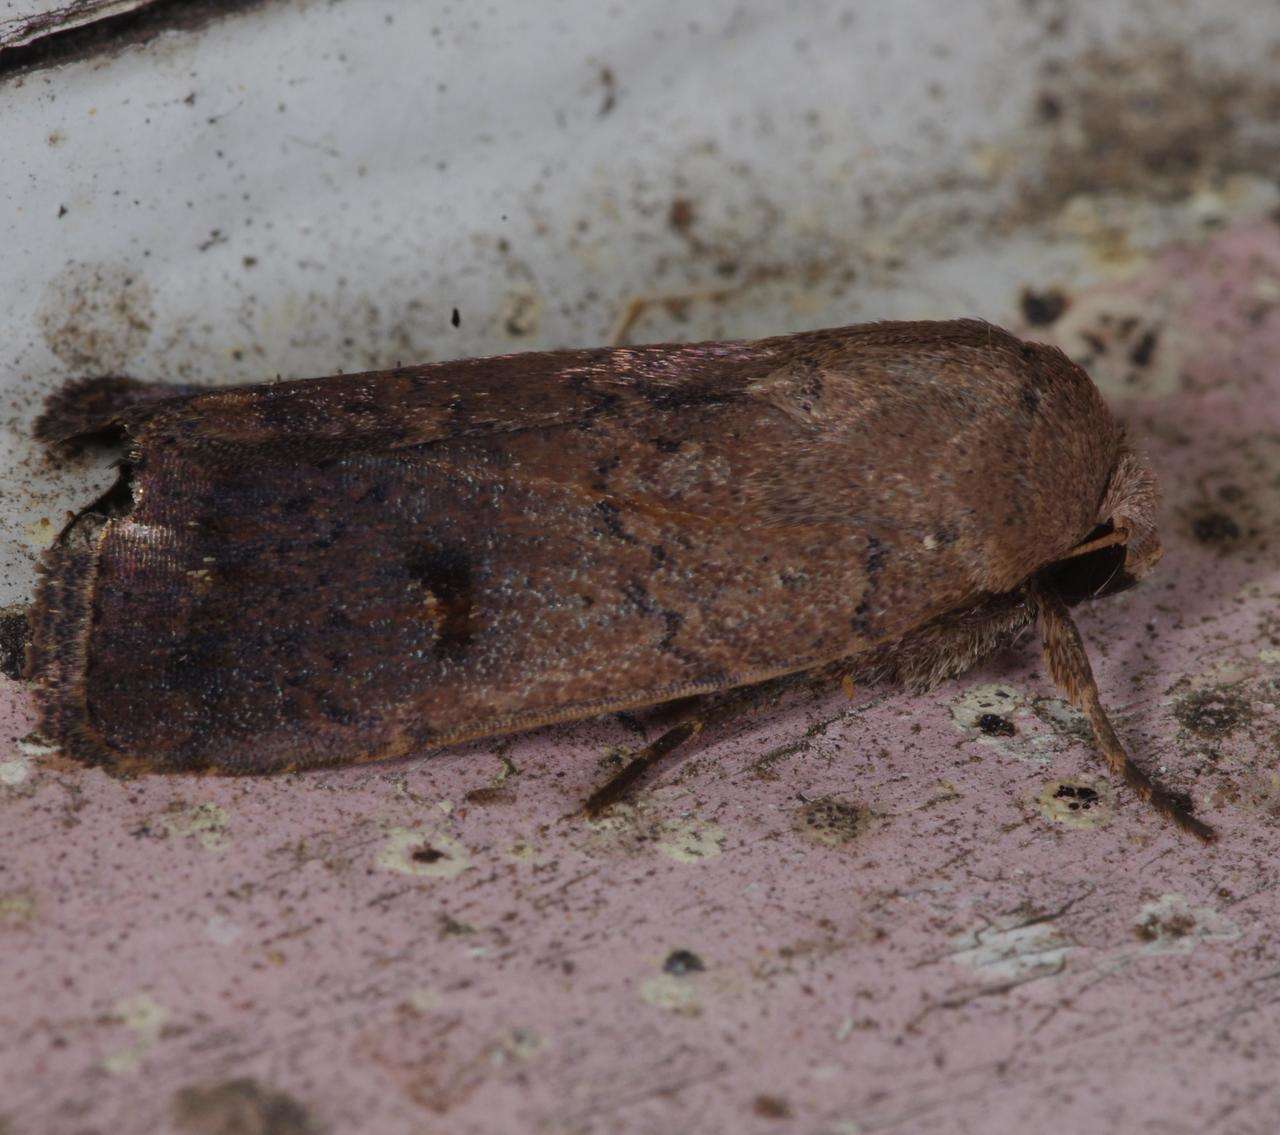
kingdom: Animalia
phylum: Arthropoda
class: Insecta
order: Lepidoptera
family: Noctuidae
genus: Proteuxoa
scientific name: Proteuxoa hypochalchis
